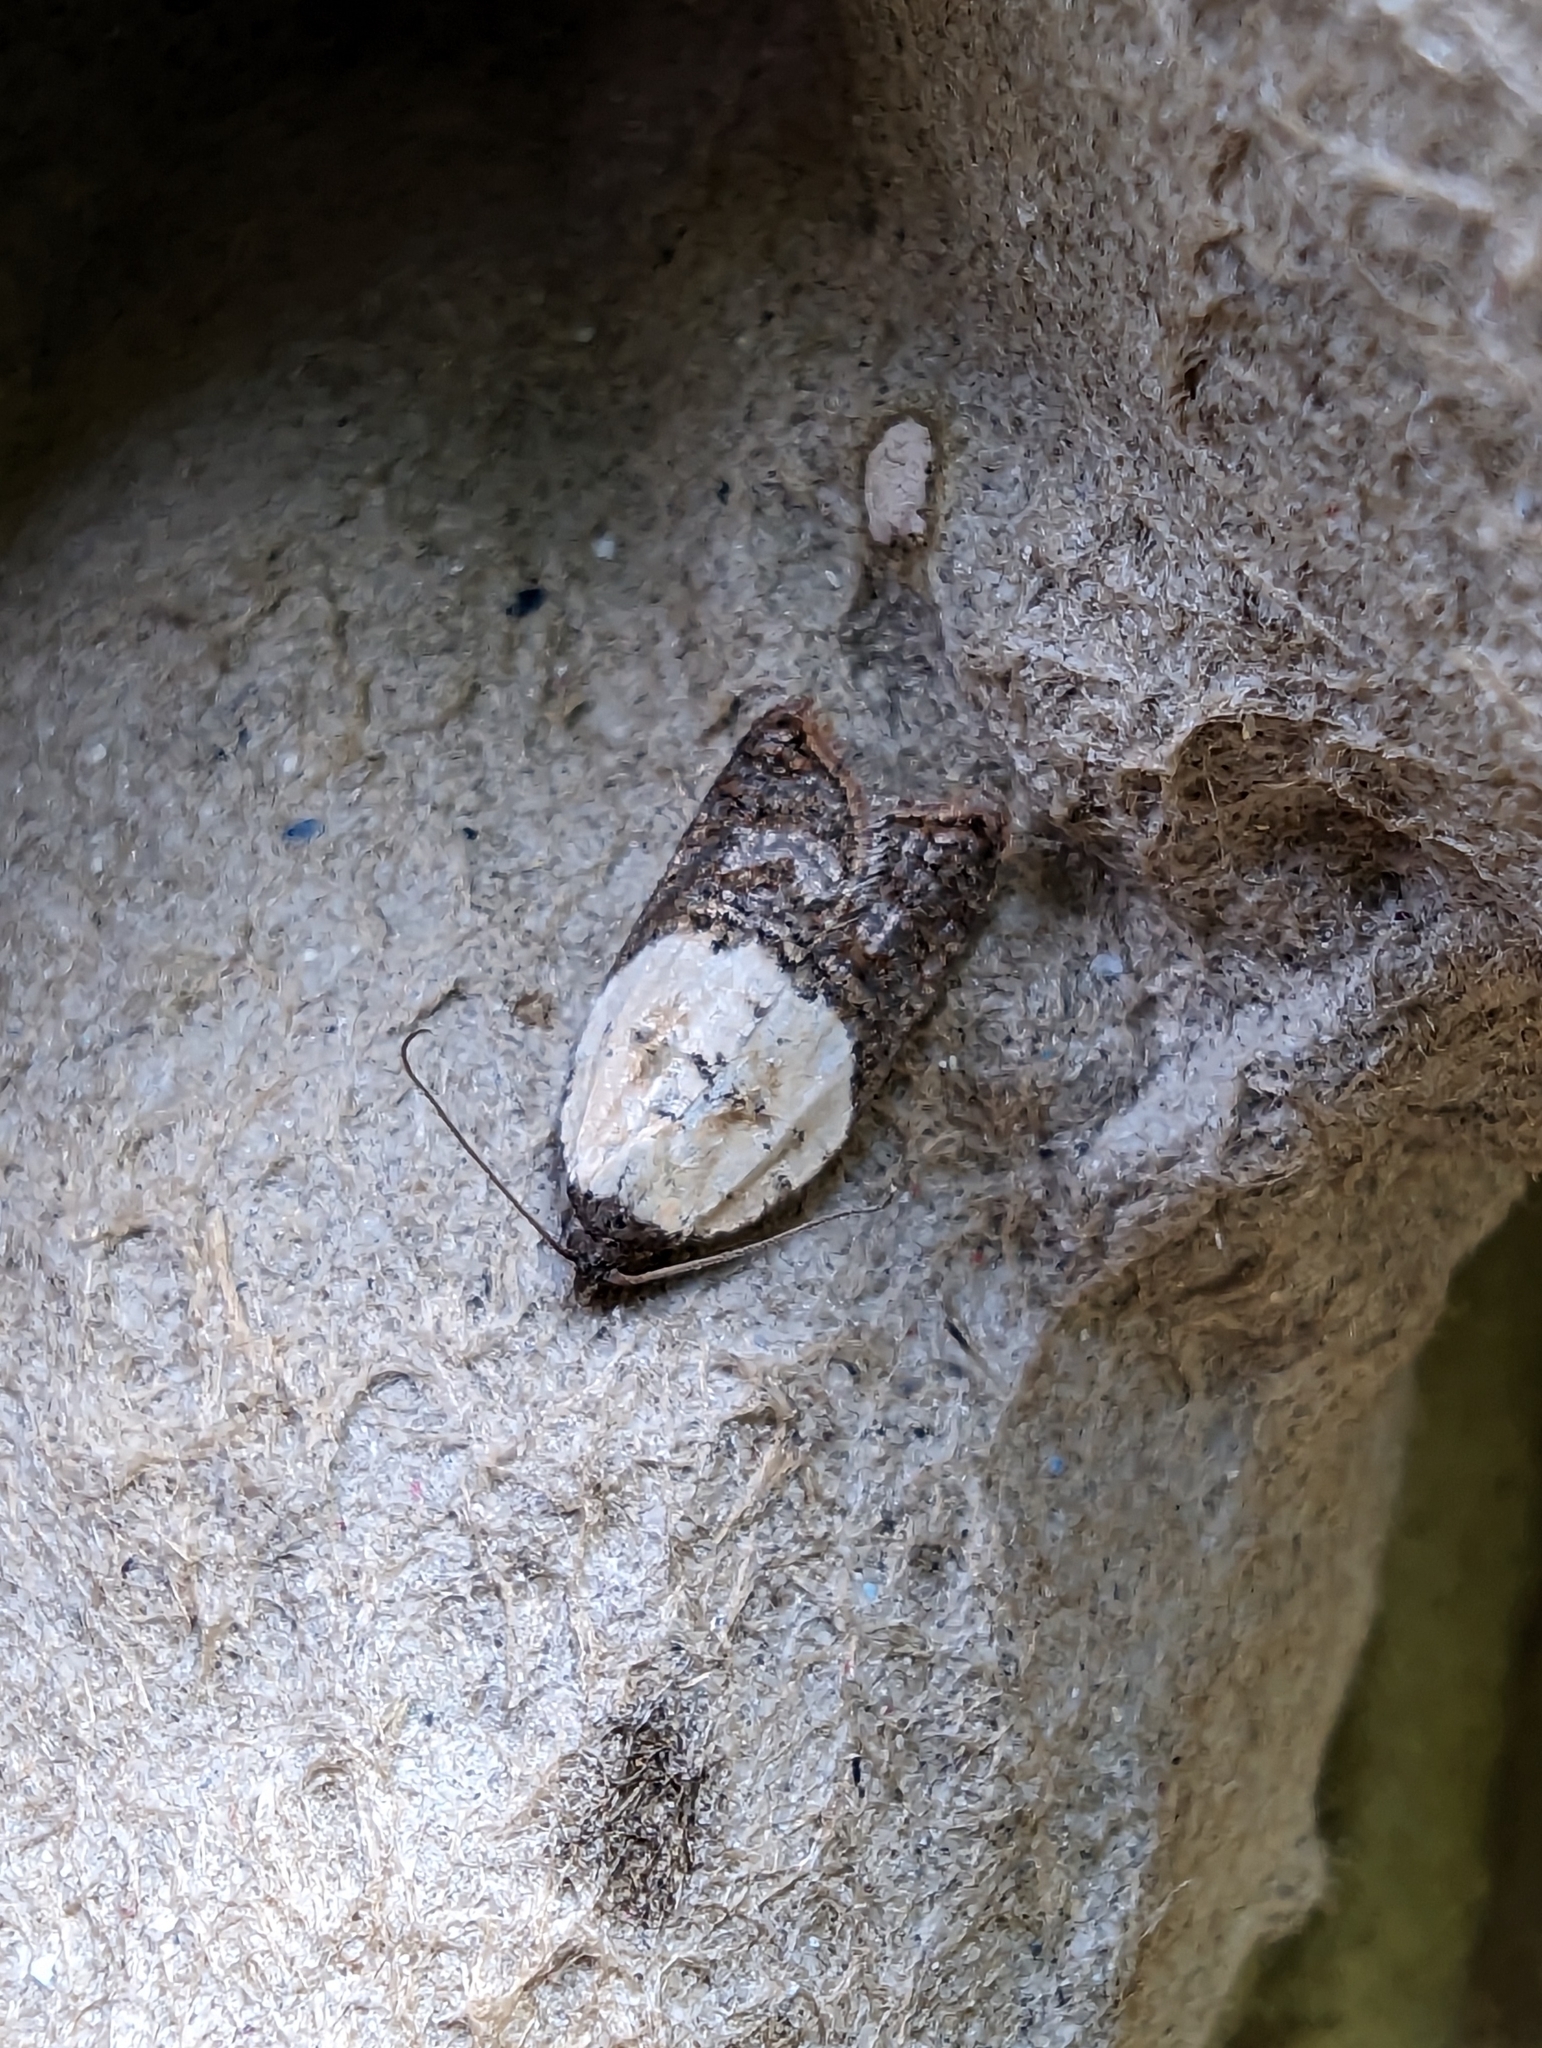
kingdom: Animalia
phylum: Arthropoda
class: Insecta
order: Lepidoptera
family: Tortricidae
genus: Acleris
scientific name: Acleris variegana
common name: Garden rose tortrix
